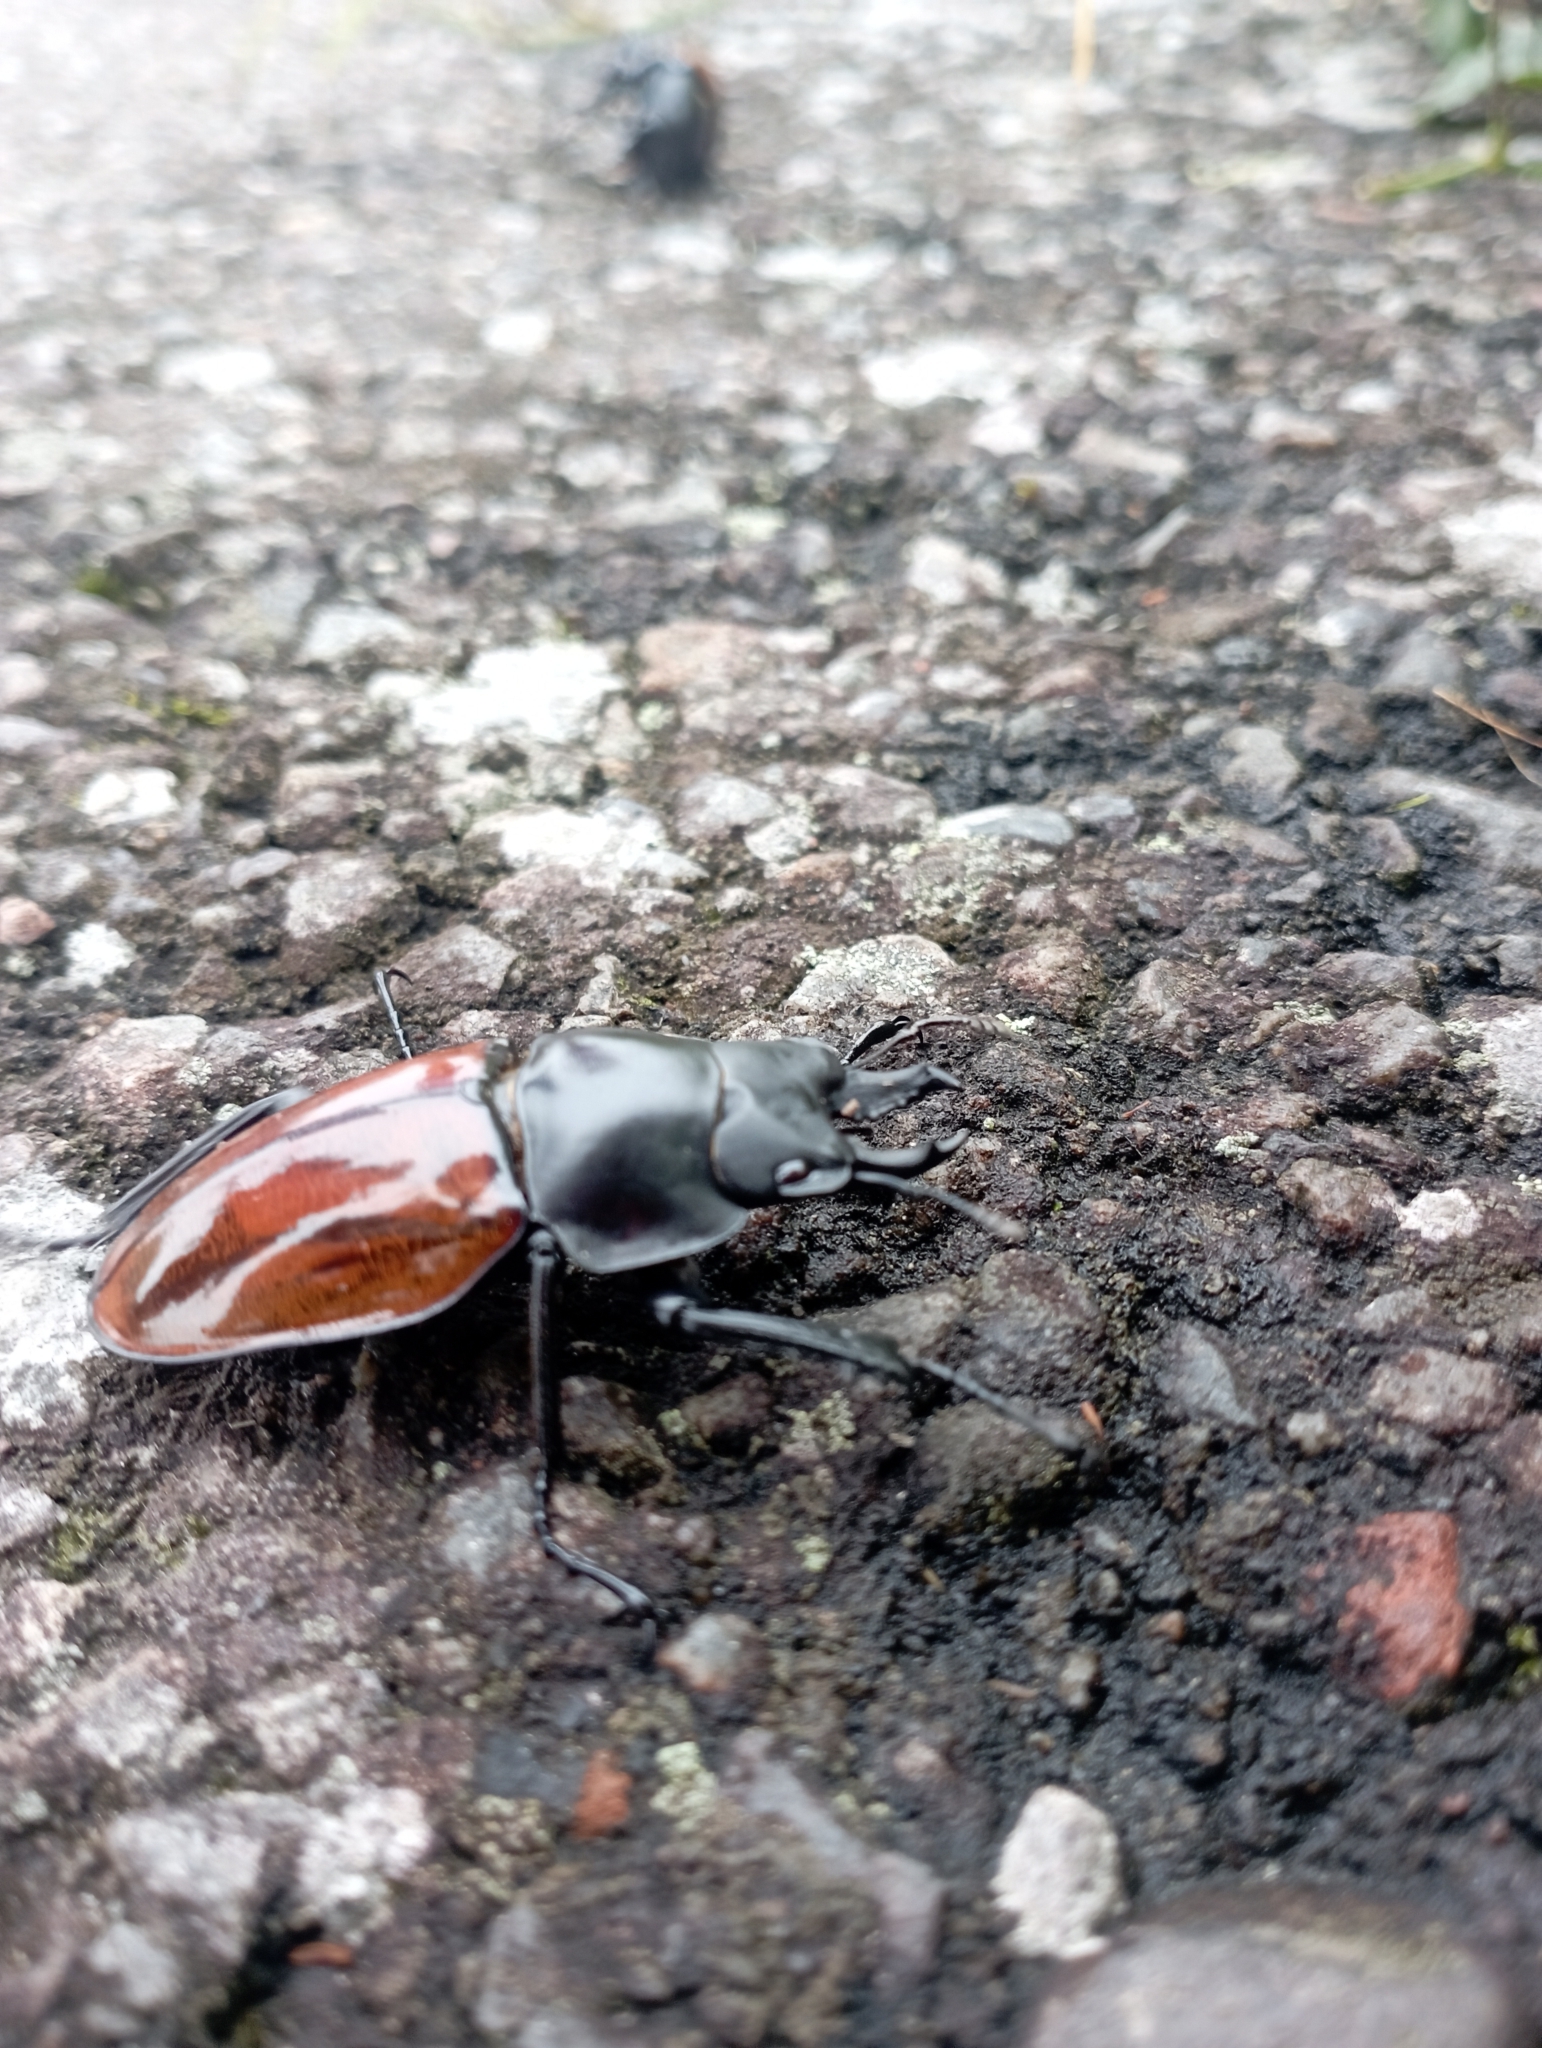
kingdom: Animalia
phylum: Arthropoda
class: Insecta
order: Coleoptera
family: Lucanidae
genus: Neolucanus
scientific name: Neolucanus swinhoei
